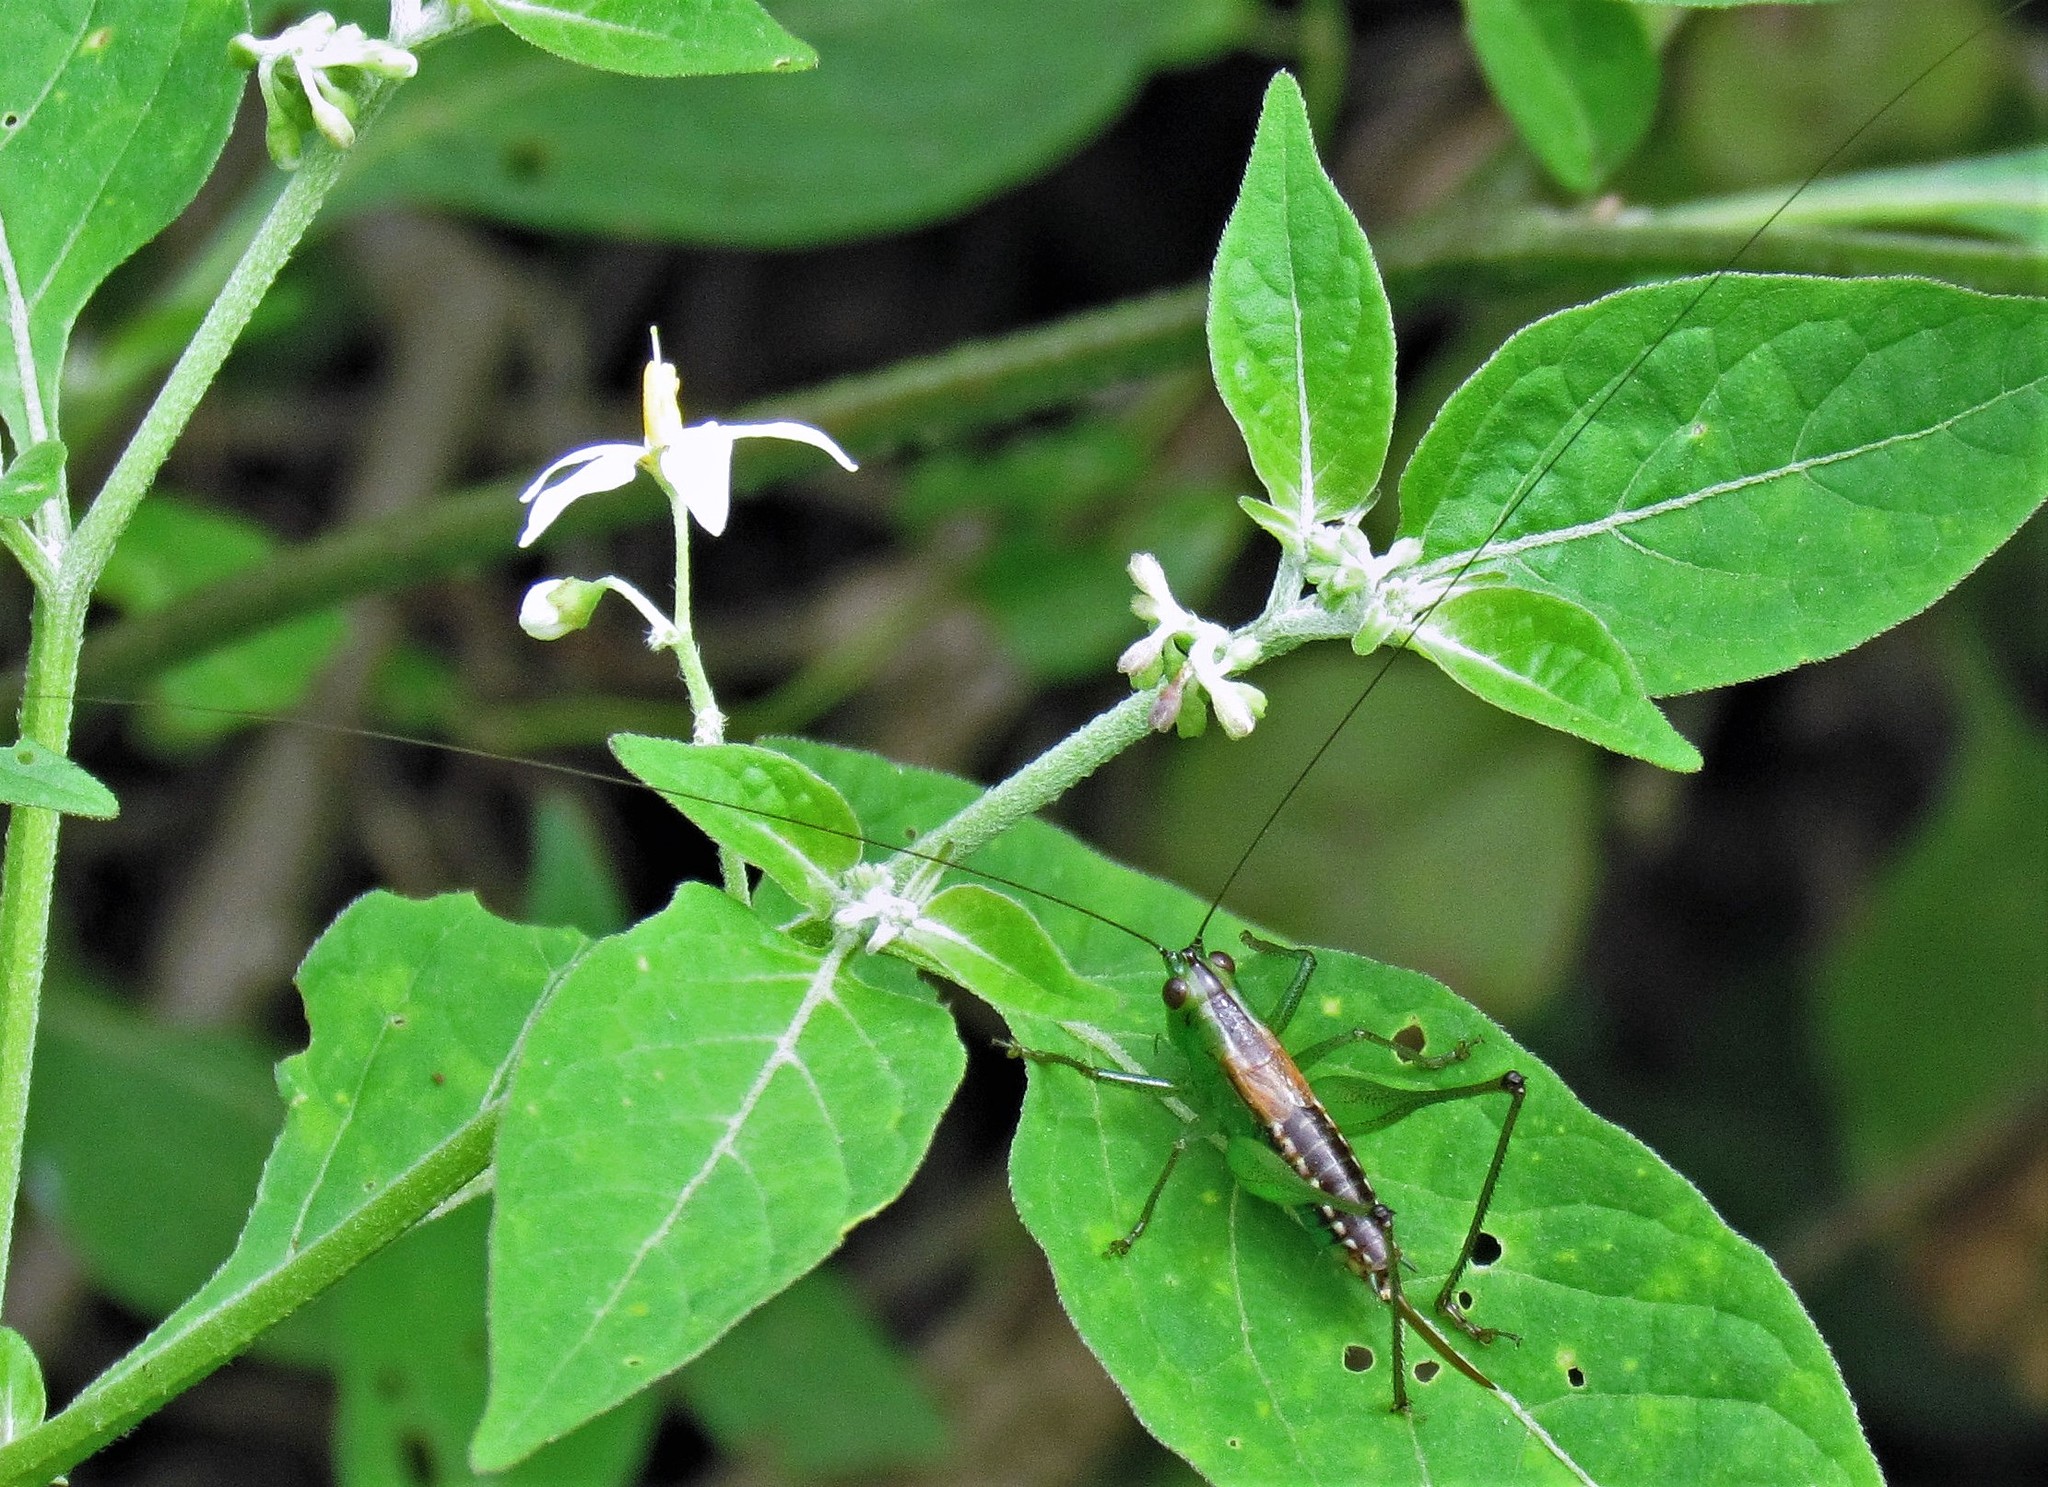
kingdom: Animalia
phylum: Arthropoda
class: Insecta
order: Orthoptera
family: Tettigoniidae
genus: Conocephalus
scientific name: Conocephalus borellii
